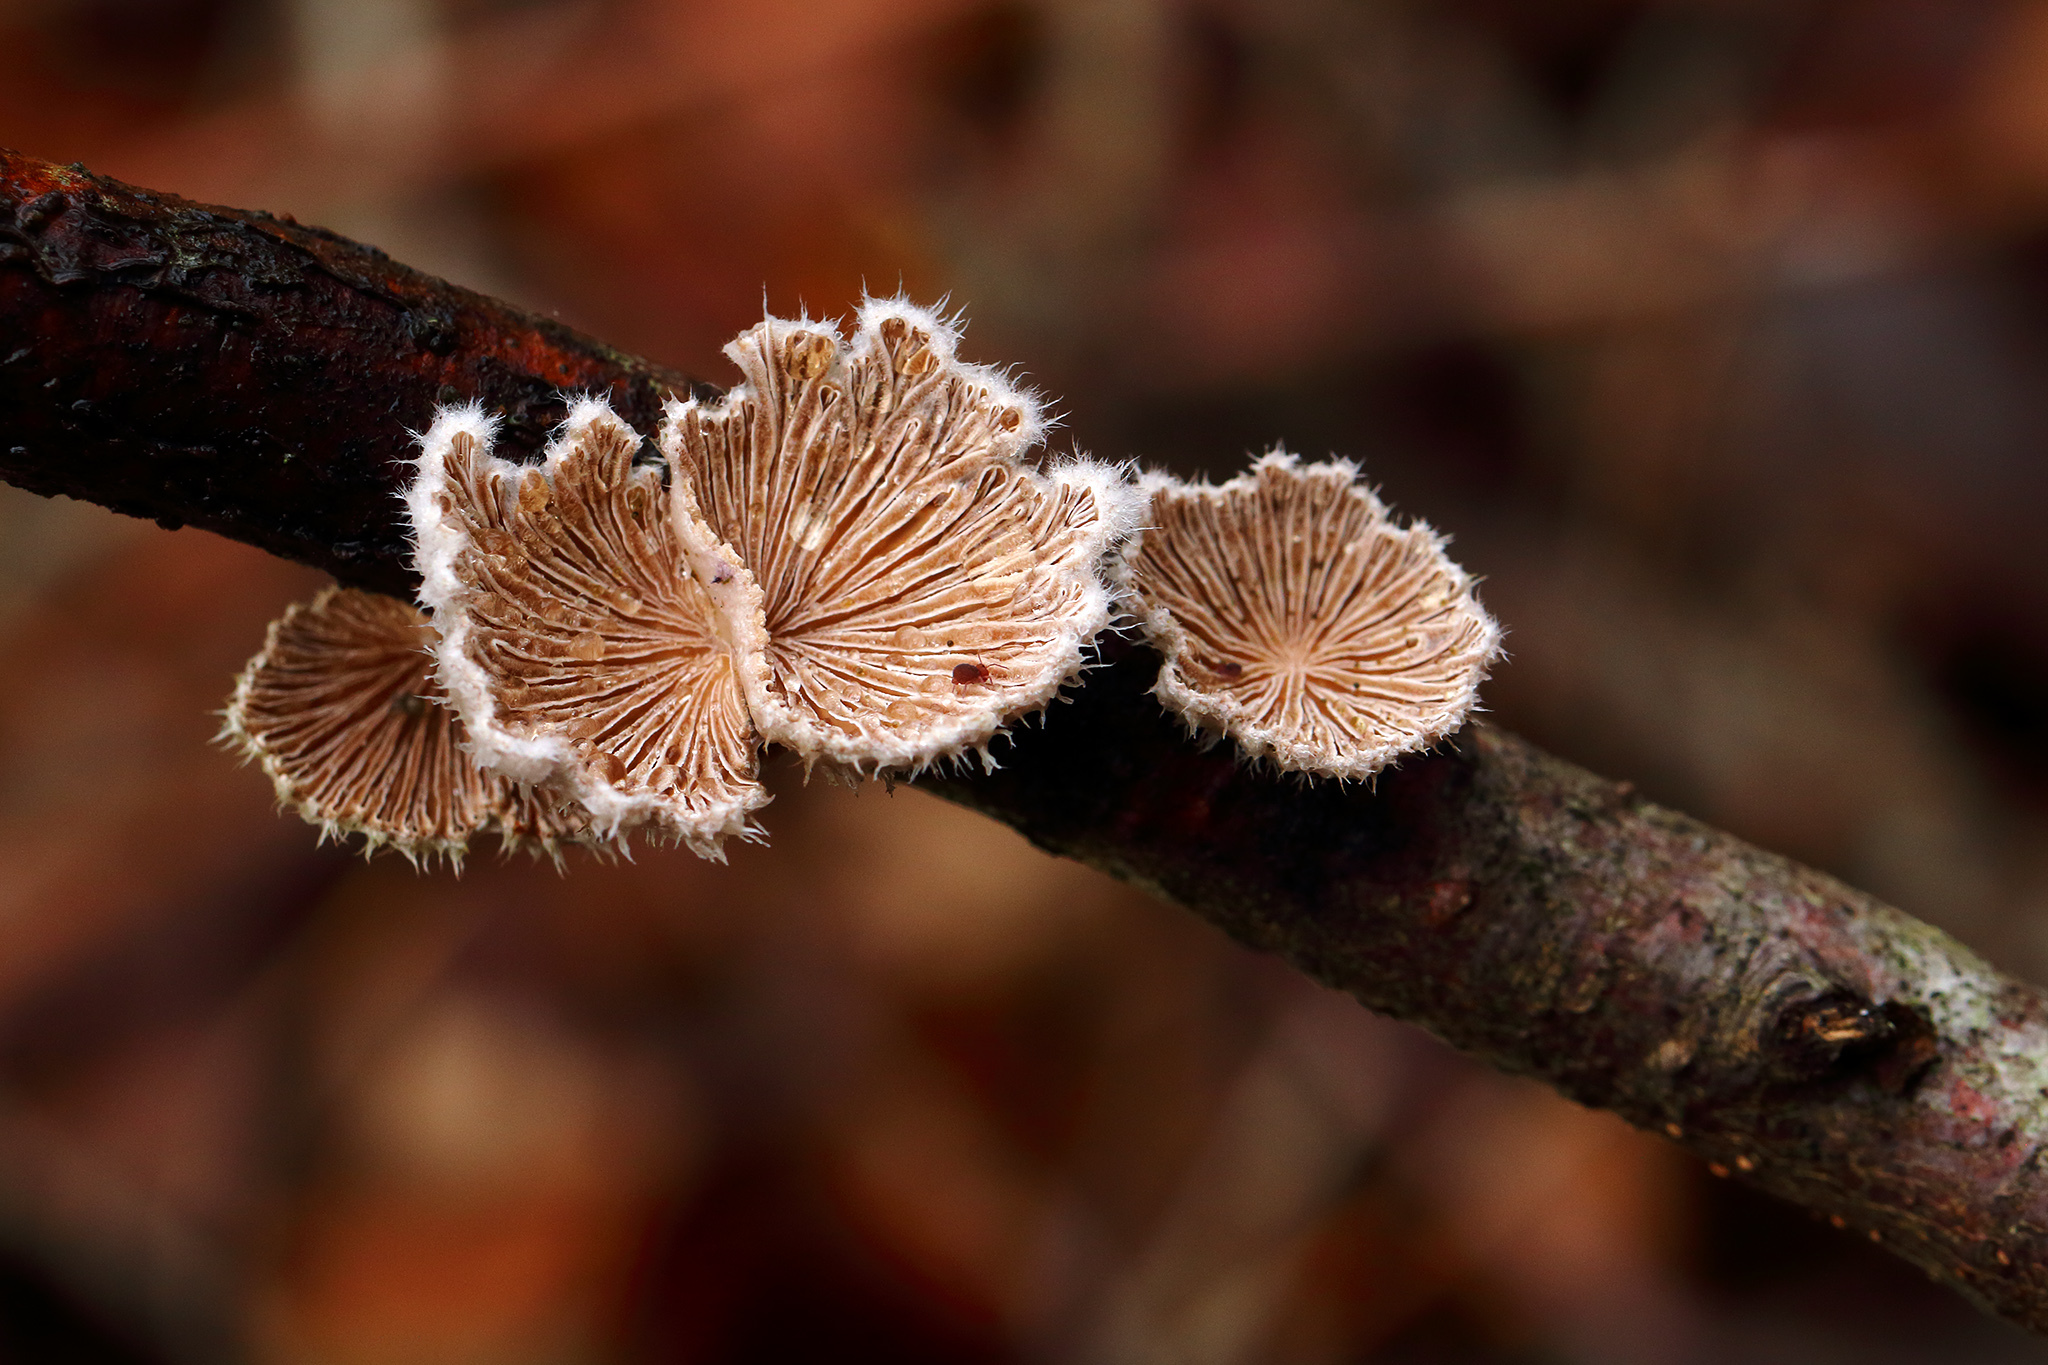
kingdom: Fungi
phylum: Basidiomycota
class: Agaricomycetes
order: Agaricales
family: Schizophyllaceae
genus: Schizophyllum
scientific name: Schizophyllum commune
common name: Common porecrust
